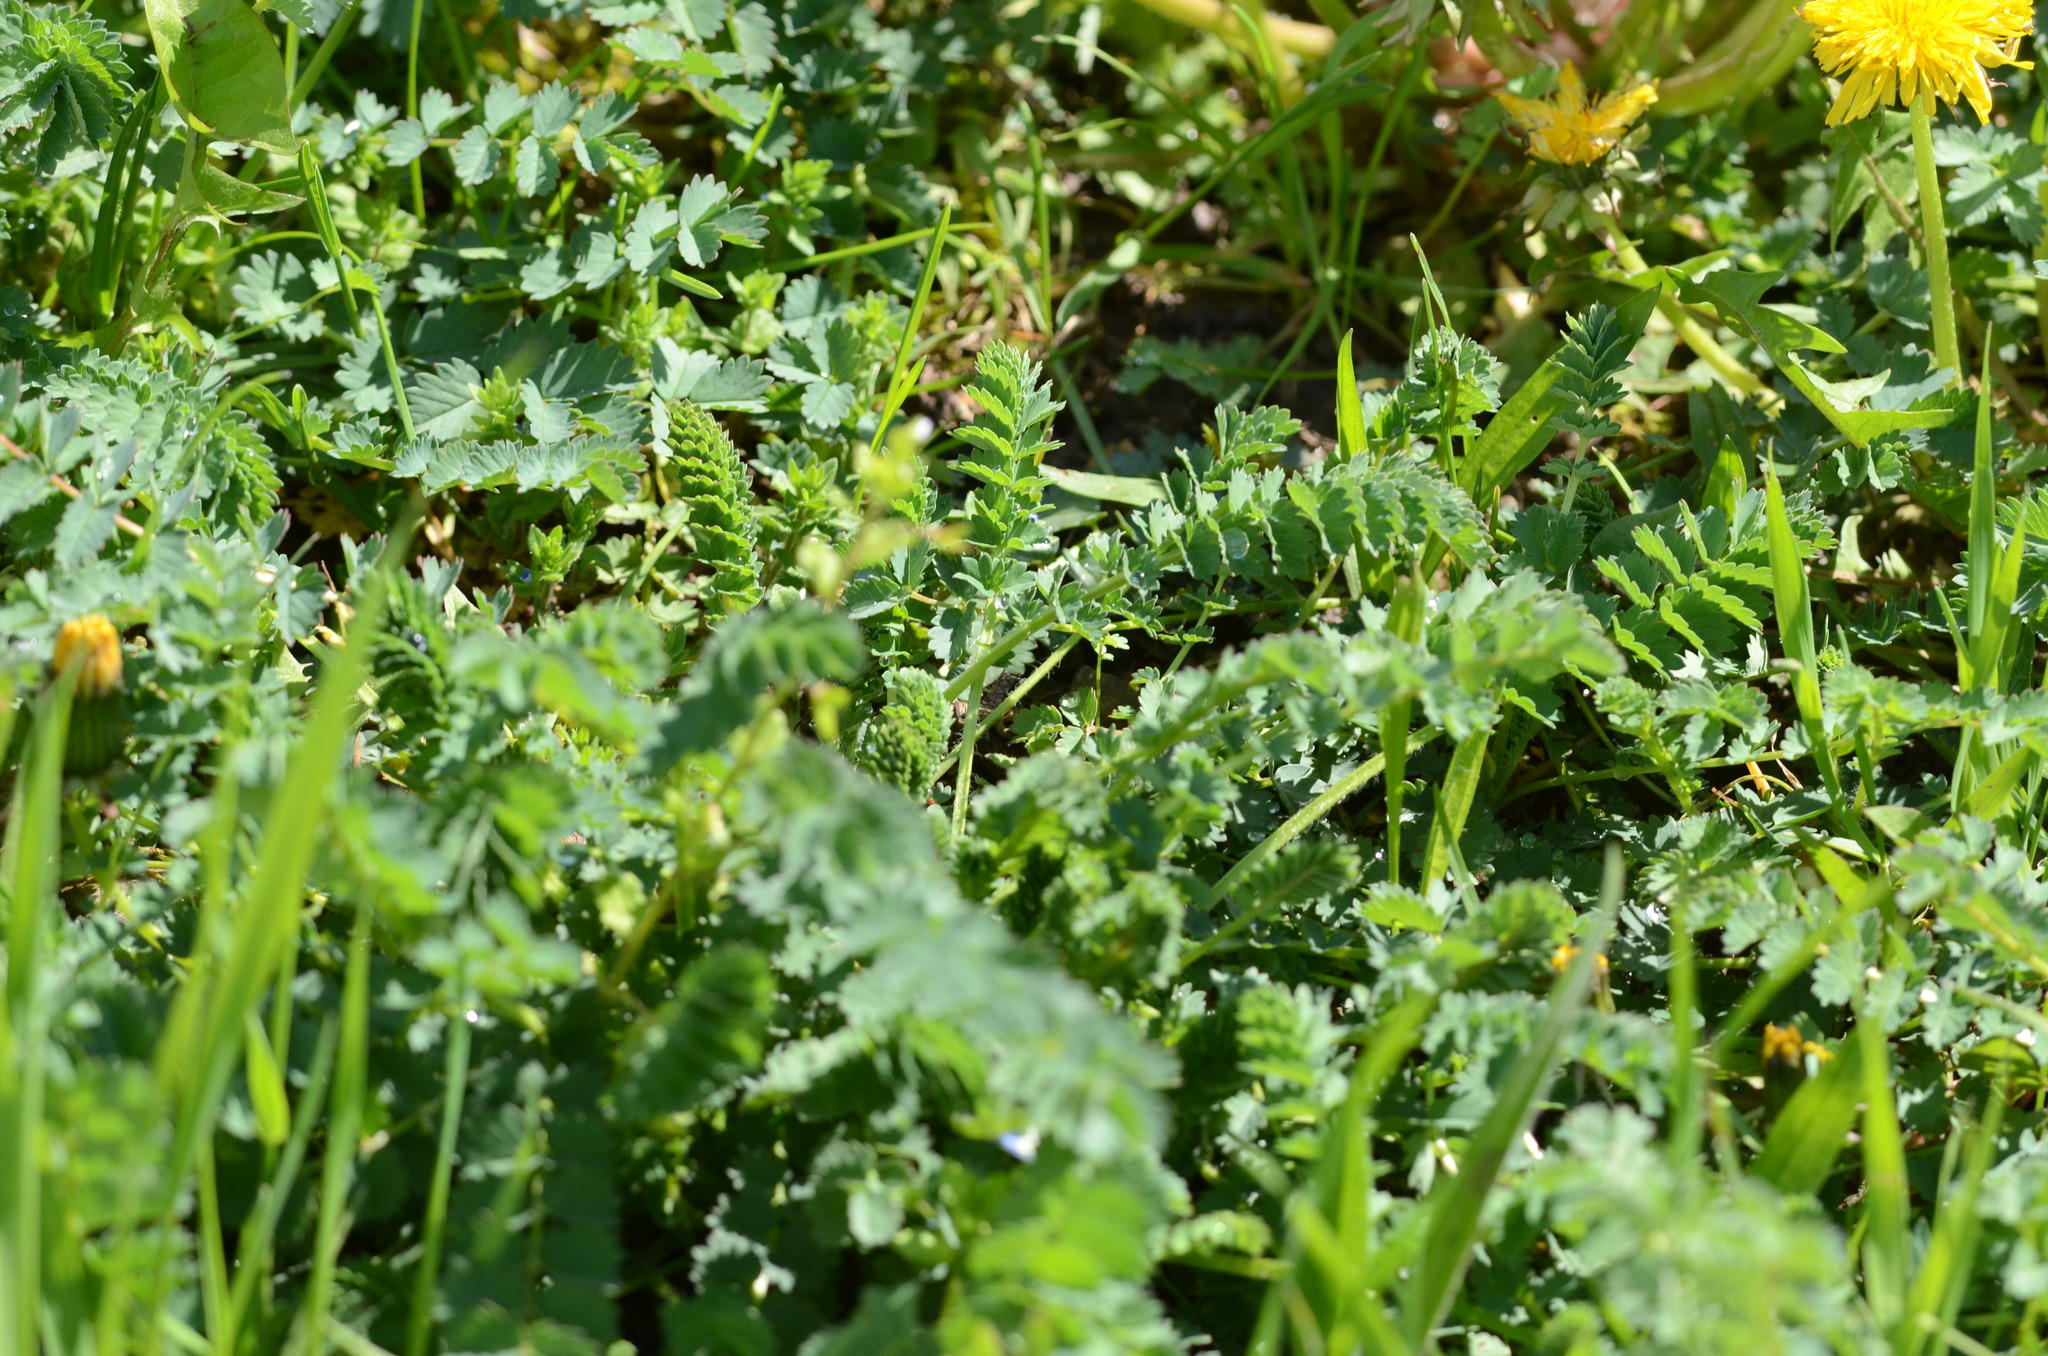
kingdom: Plantae
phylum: Tracheophyta
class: Magnoliopsida
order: Rosales
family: Rosaceae
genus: Poterium
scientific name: Poterium sanguisorba
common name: Salad burnet
